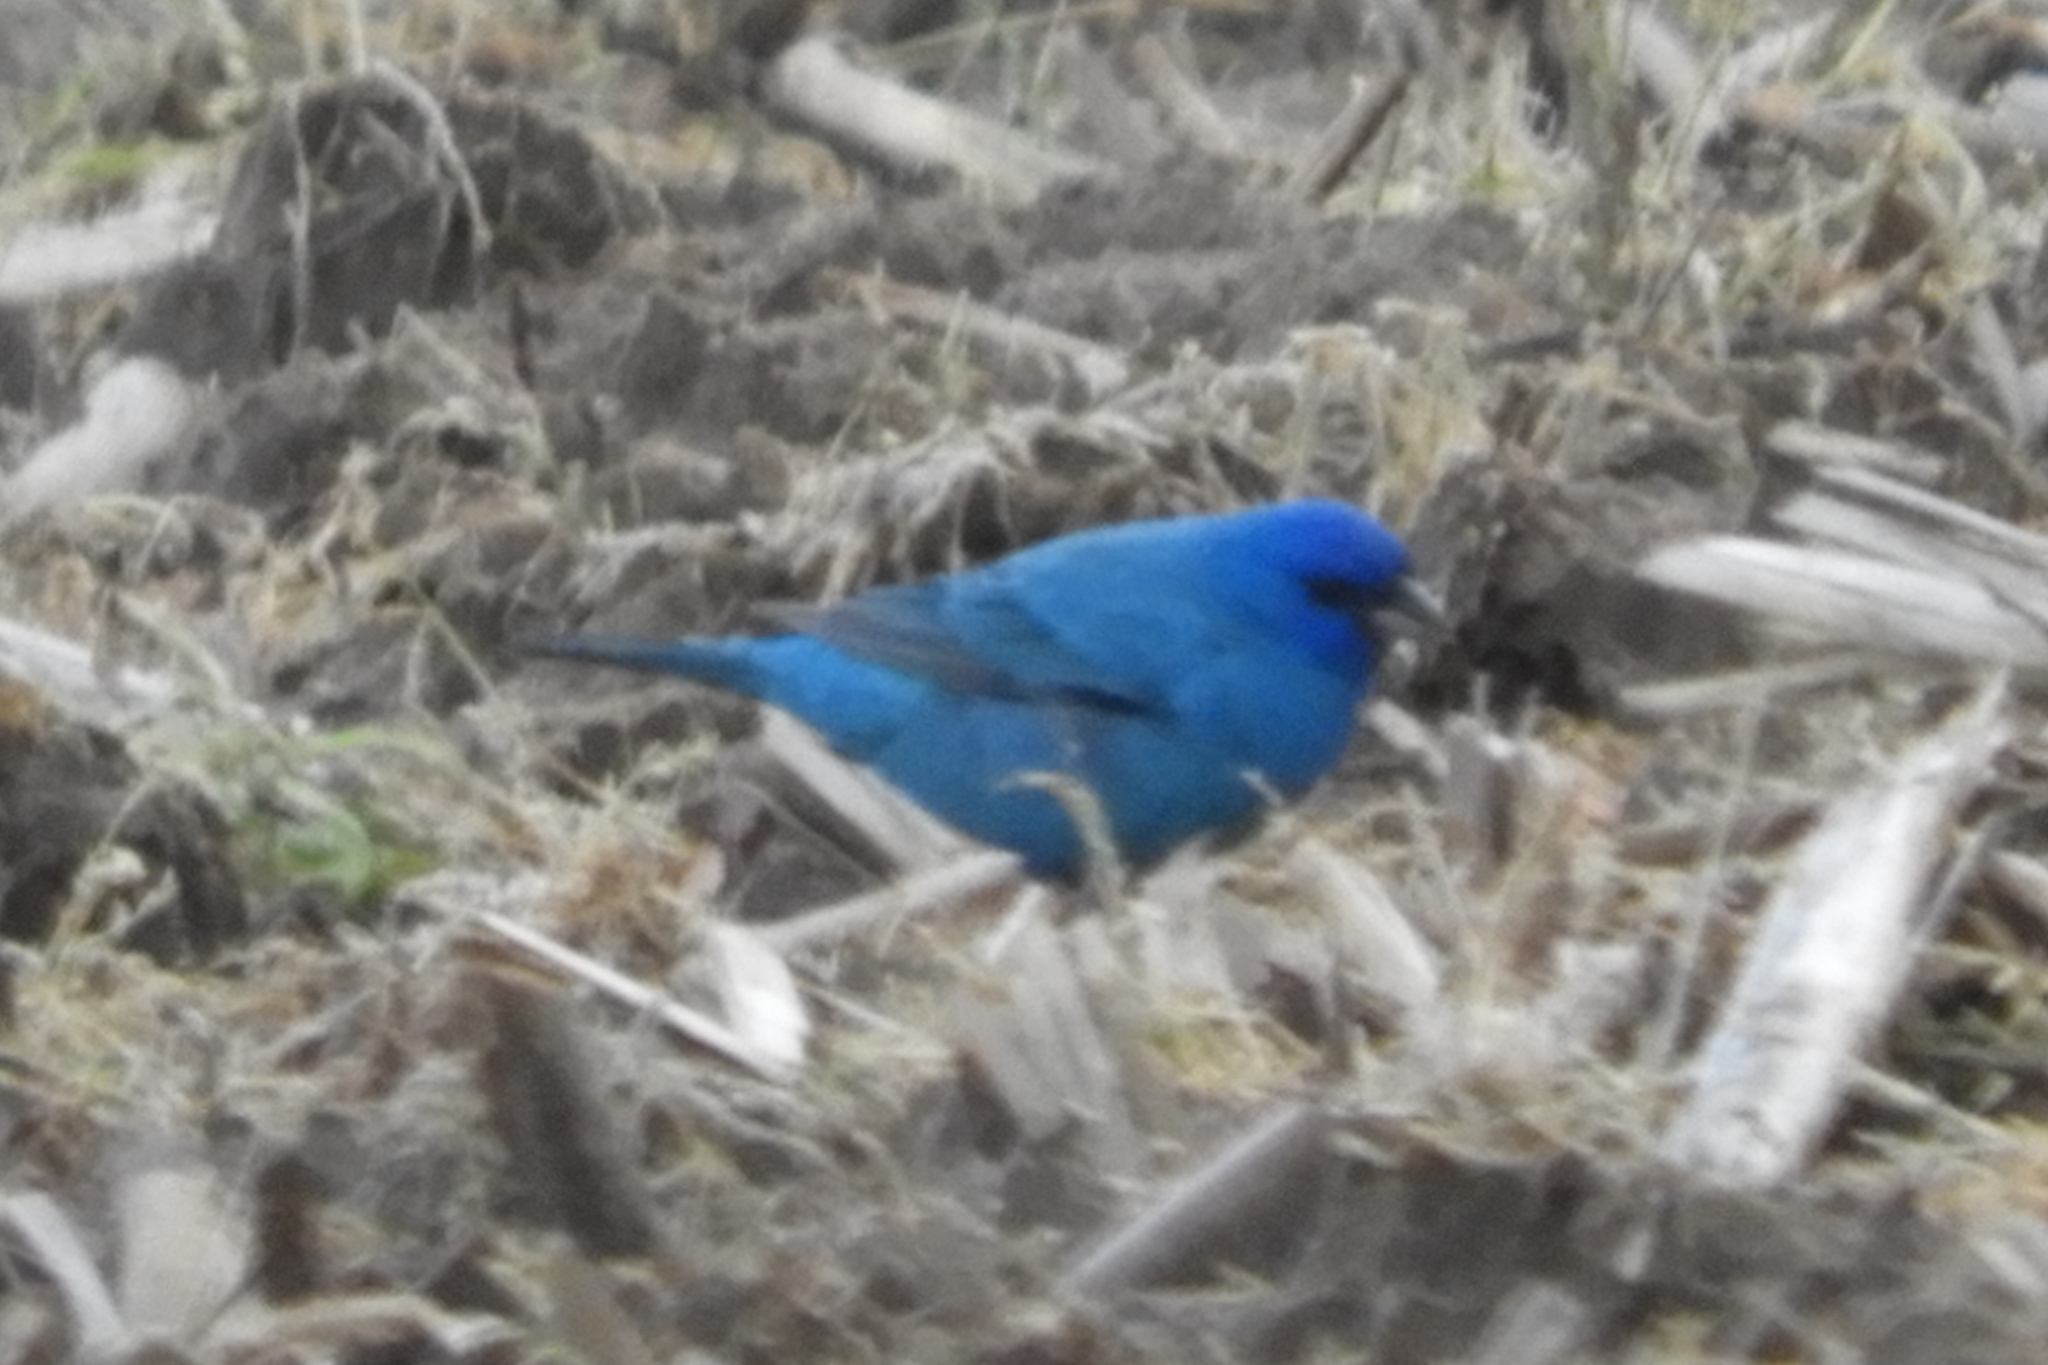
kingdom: Animalia
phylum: Chordata
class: Aves
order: Passeriformes
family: Cardinalidae
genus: Passerina
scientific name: Passerina cyanea
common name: Indigo bunting
